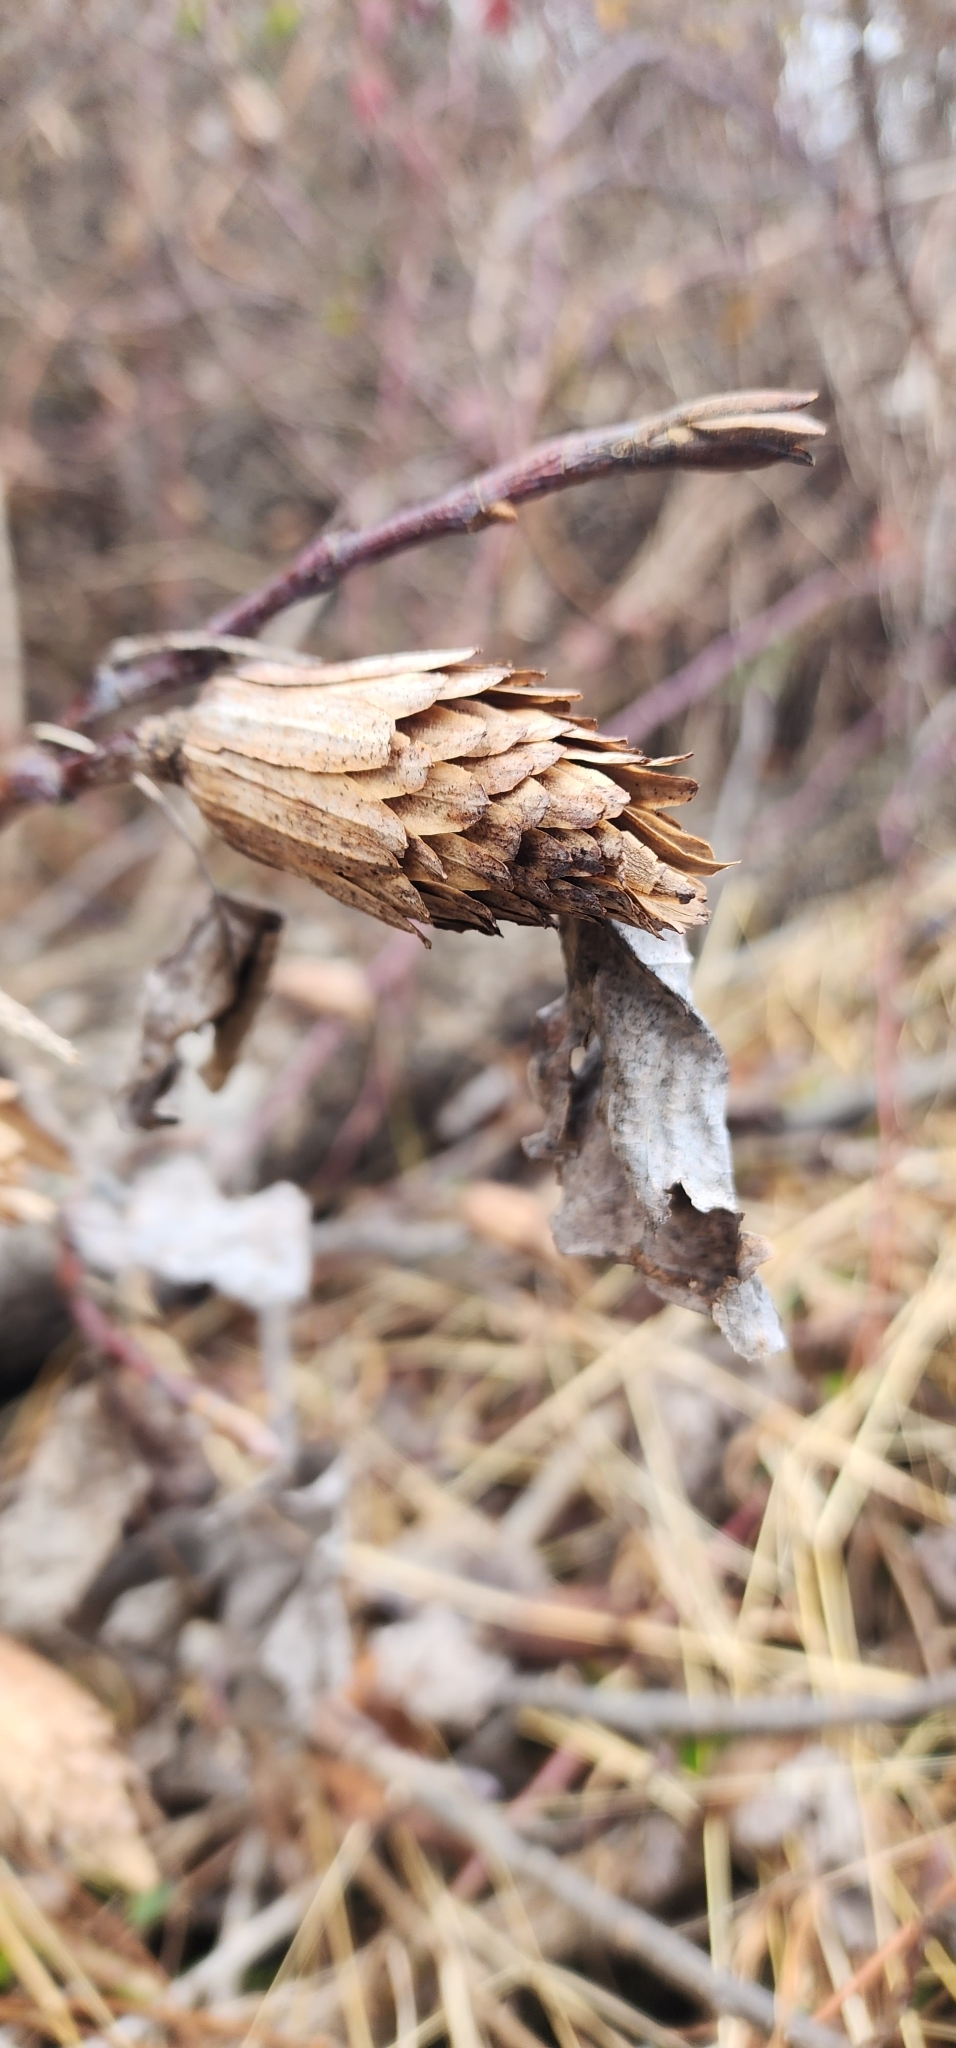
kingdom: Plantae
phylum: Tracheophyta
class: Magnoliopsida
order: Magnoliales
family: Magnoliaceae
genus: Liriodendron
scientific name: Liriodendron tulipifera
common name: Tulip tree
